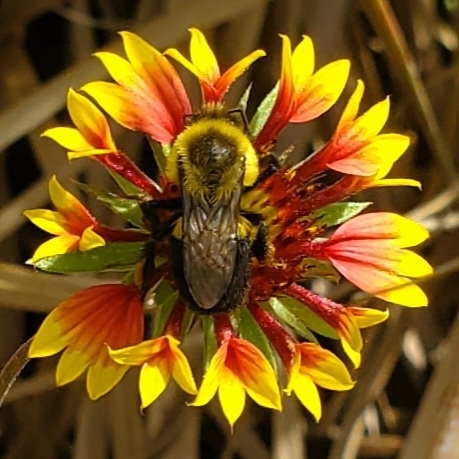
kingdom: Animalia
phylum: Arthropoda
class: Insecta
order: Hymenoptera
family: Apidae
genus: Bombus
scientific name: Bombus impatiens
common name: Common eastern bumble bee
